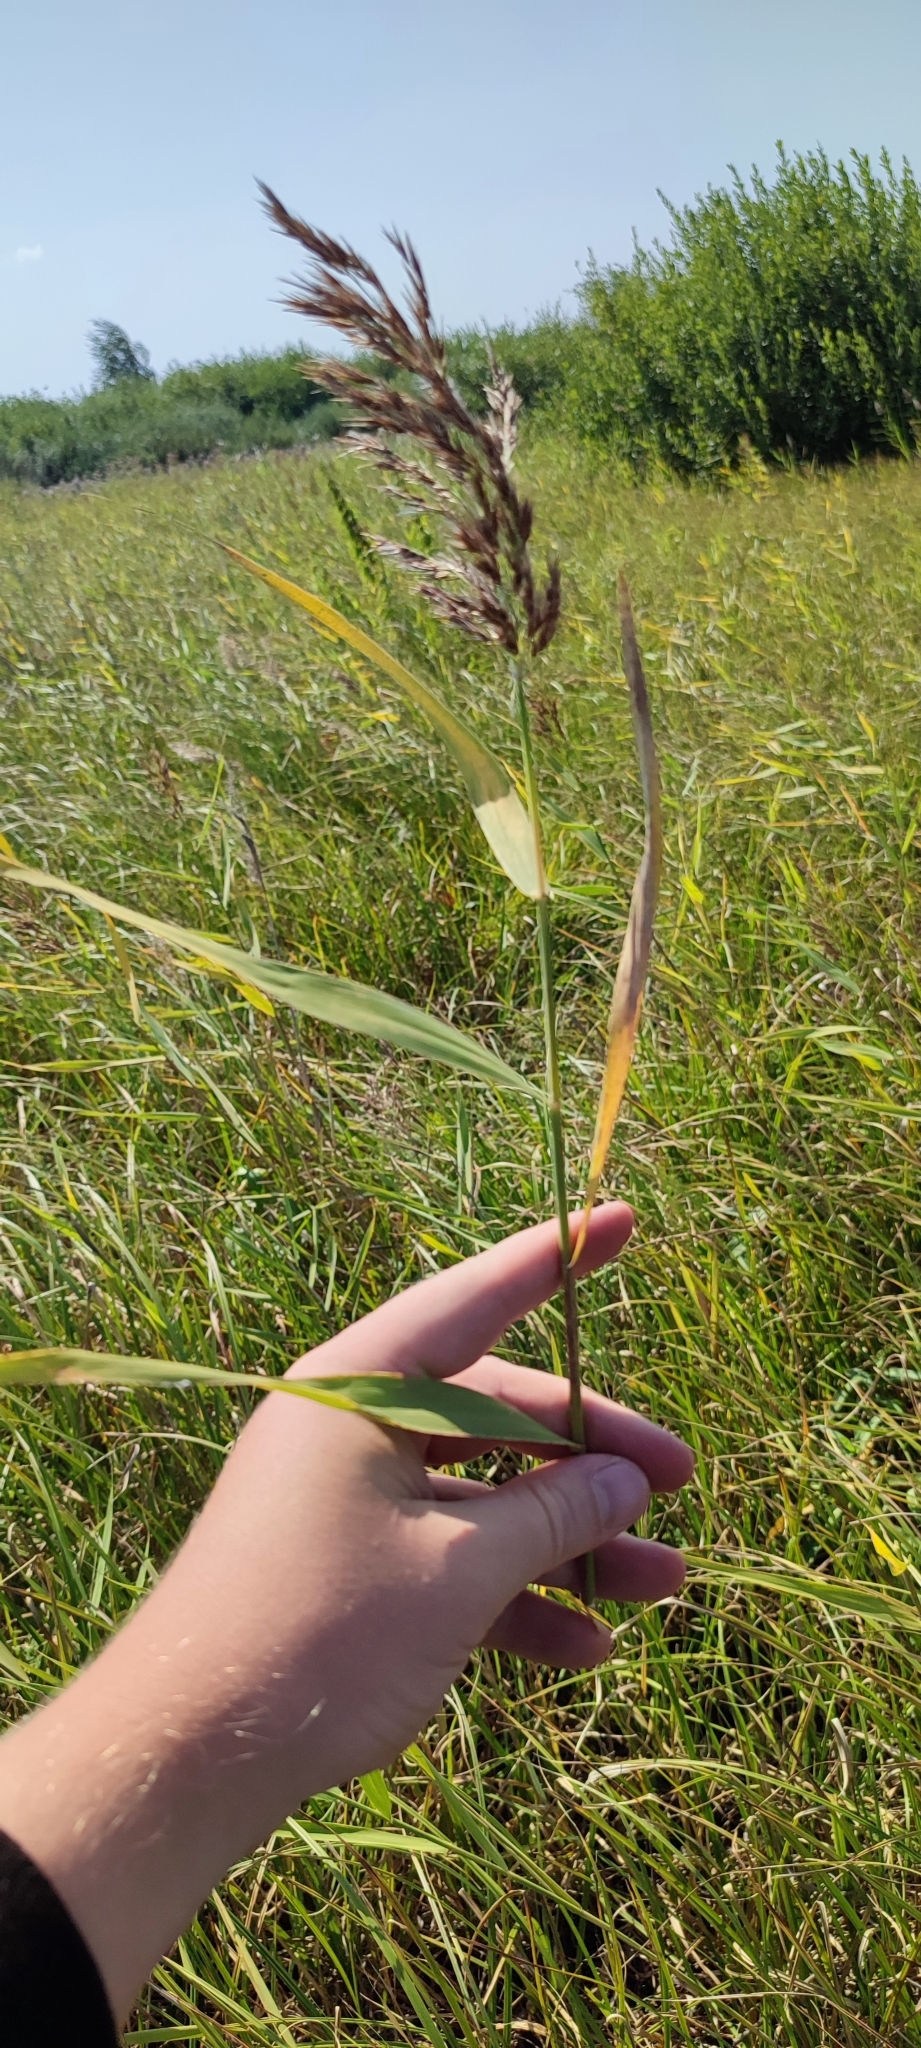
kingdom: Plantae
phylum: Tracheophyta
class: Liliopsida
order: Poales
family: Poaceae
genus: Phragmites
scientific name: Phragmites australis
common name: Common reed
